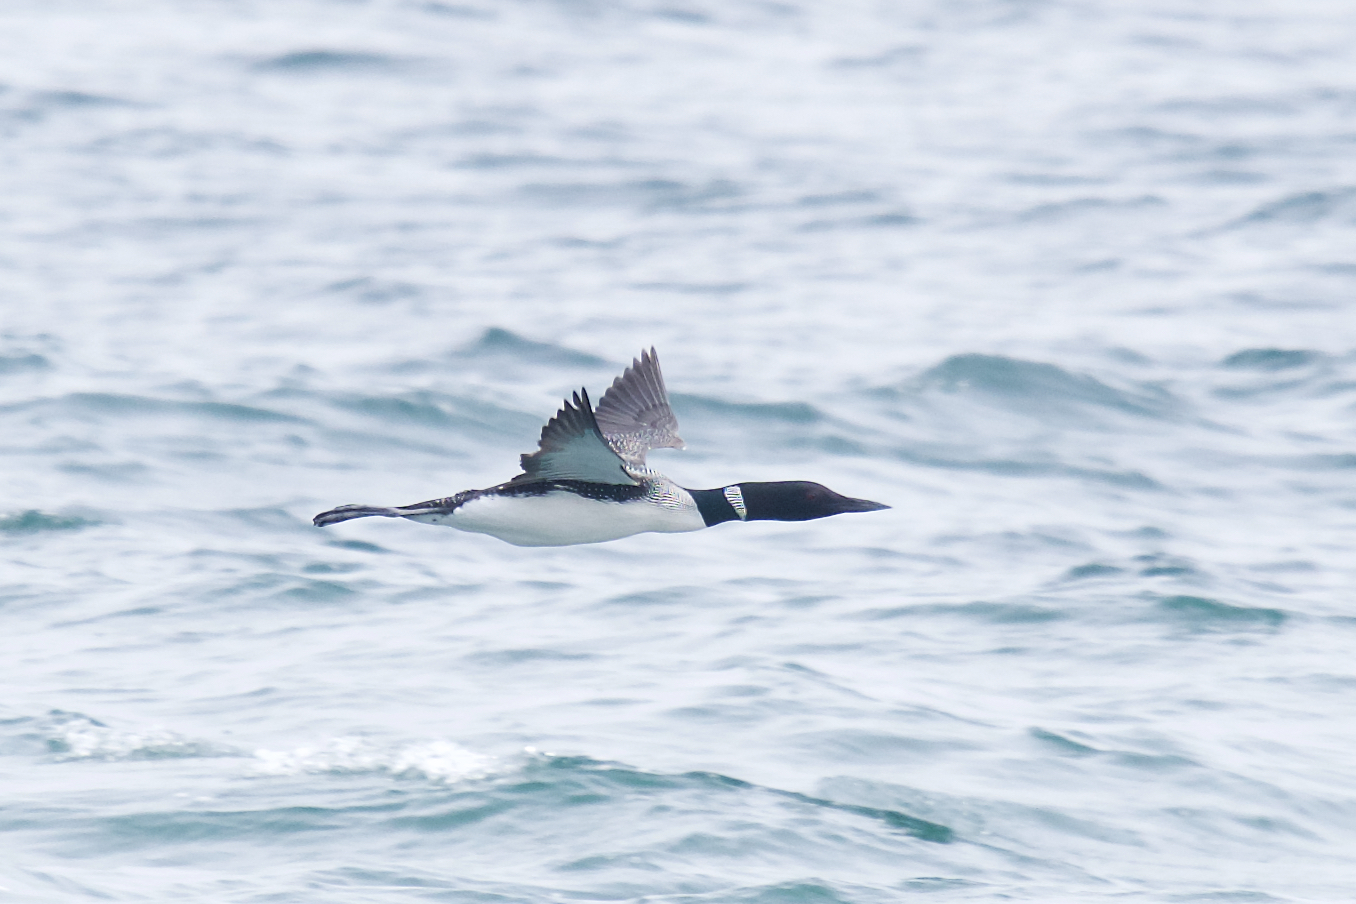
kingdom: Animalia
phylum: Chordata
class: Aves
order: Gaviiformes
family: Gaviidae
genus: Gavia
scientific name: Gavia immer
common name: Common loon
